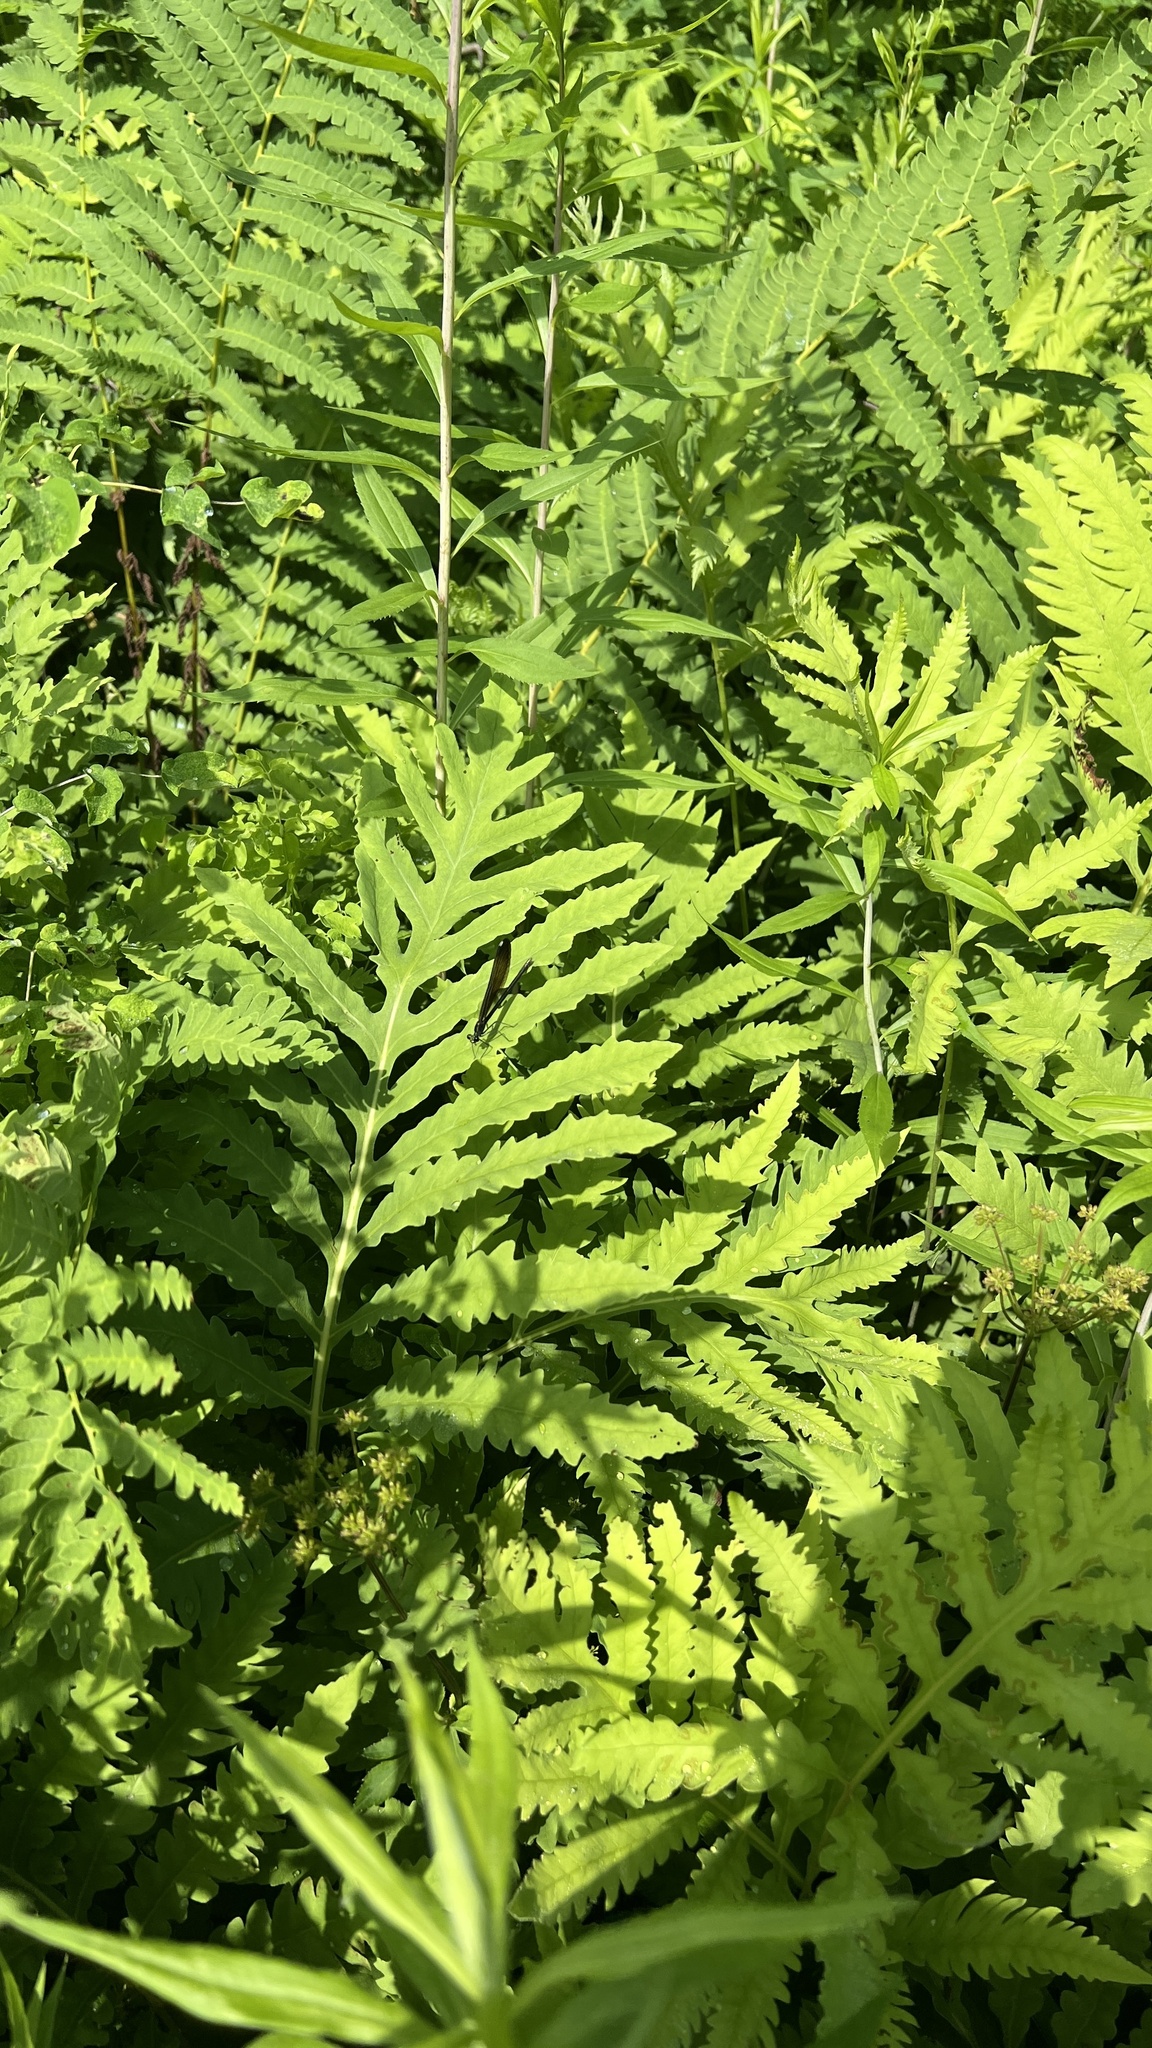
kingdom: Plantae
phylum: Tracheophyta
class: Polypodiopsida
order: Polypodiales
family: Onocleaceae
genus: Onoclea
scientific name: Onoclea sensibilis
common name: Sensitive fern
